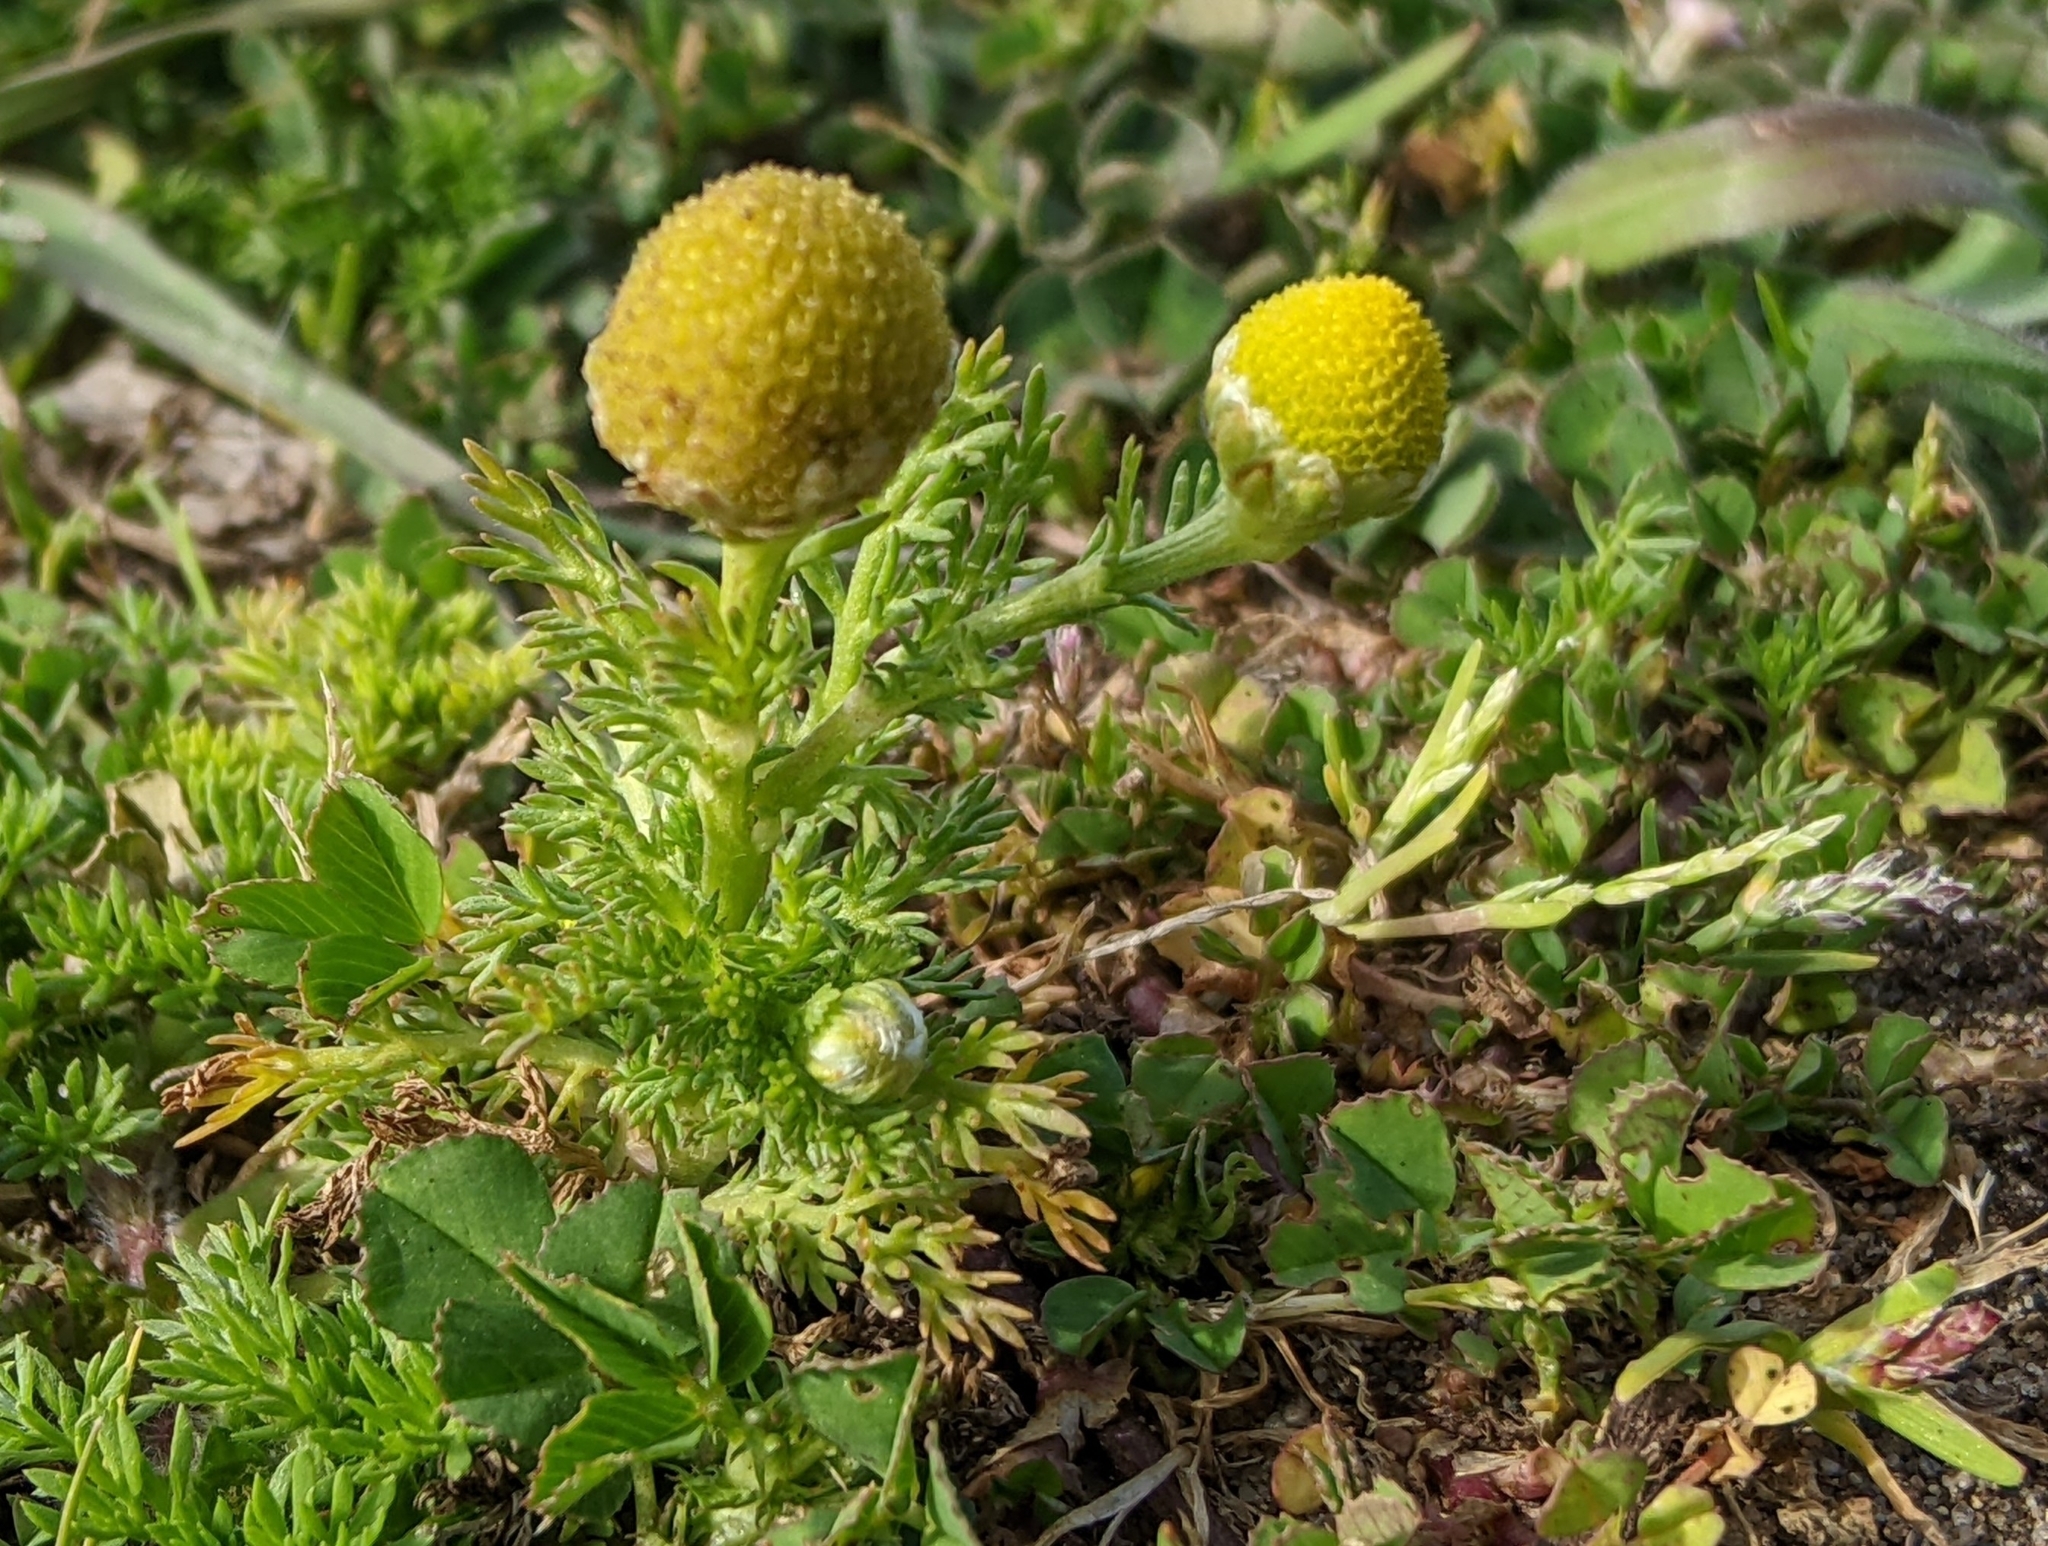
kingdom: Plantae
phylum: Tracheophyta
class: Magnoliopsida
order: Asterales
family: Asteraceae
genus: Matricaria
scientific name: Matricaria discoidea
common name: Disc mayweed
